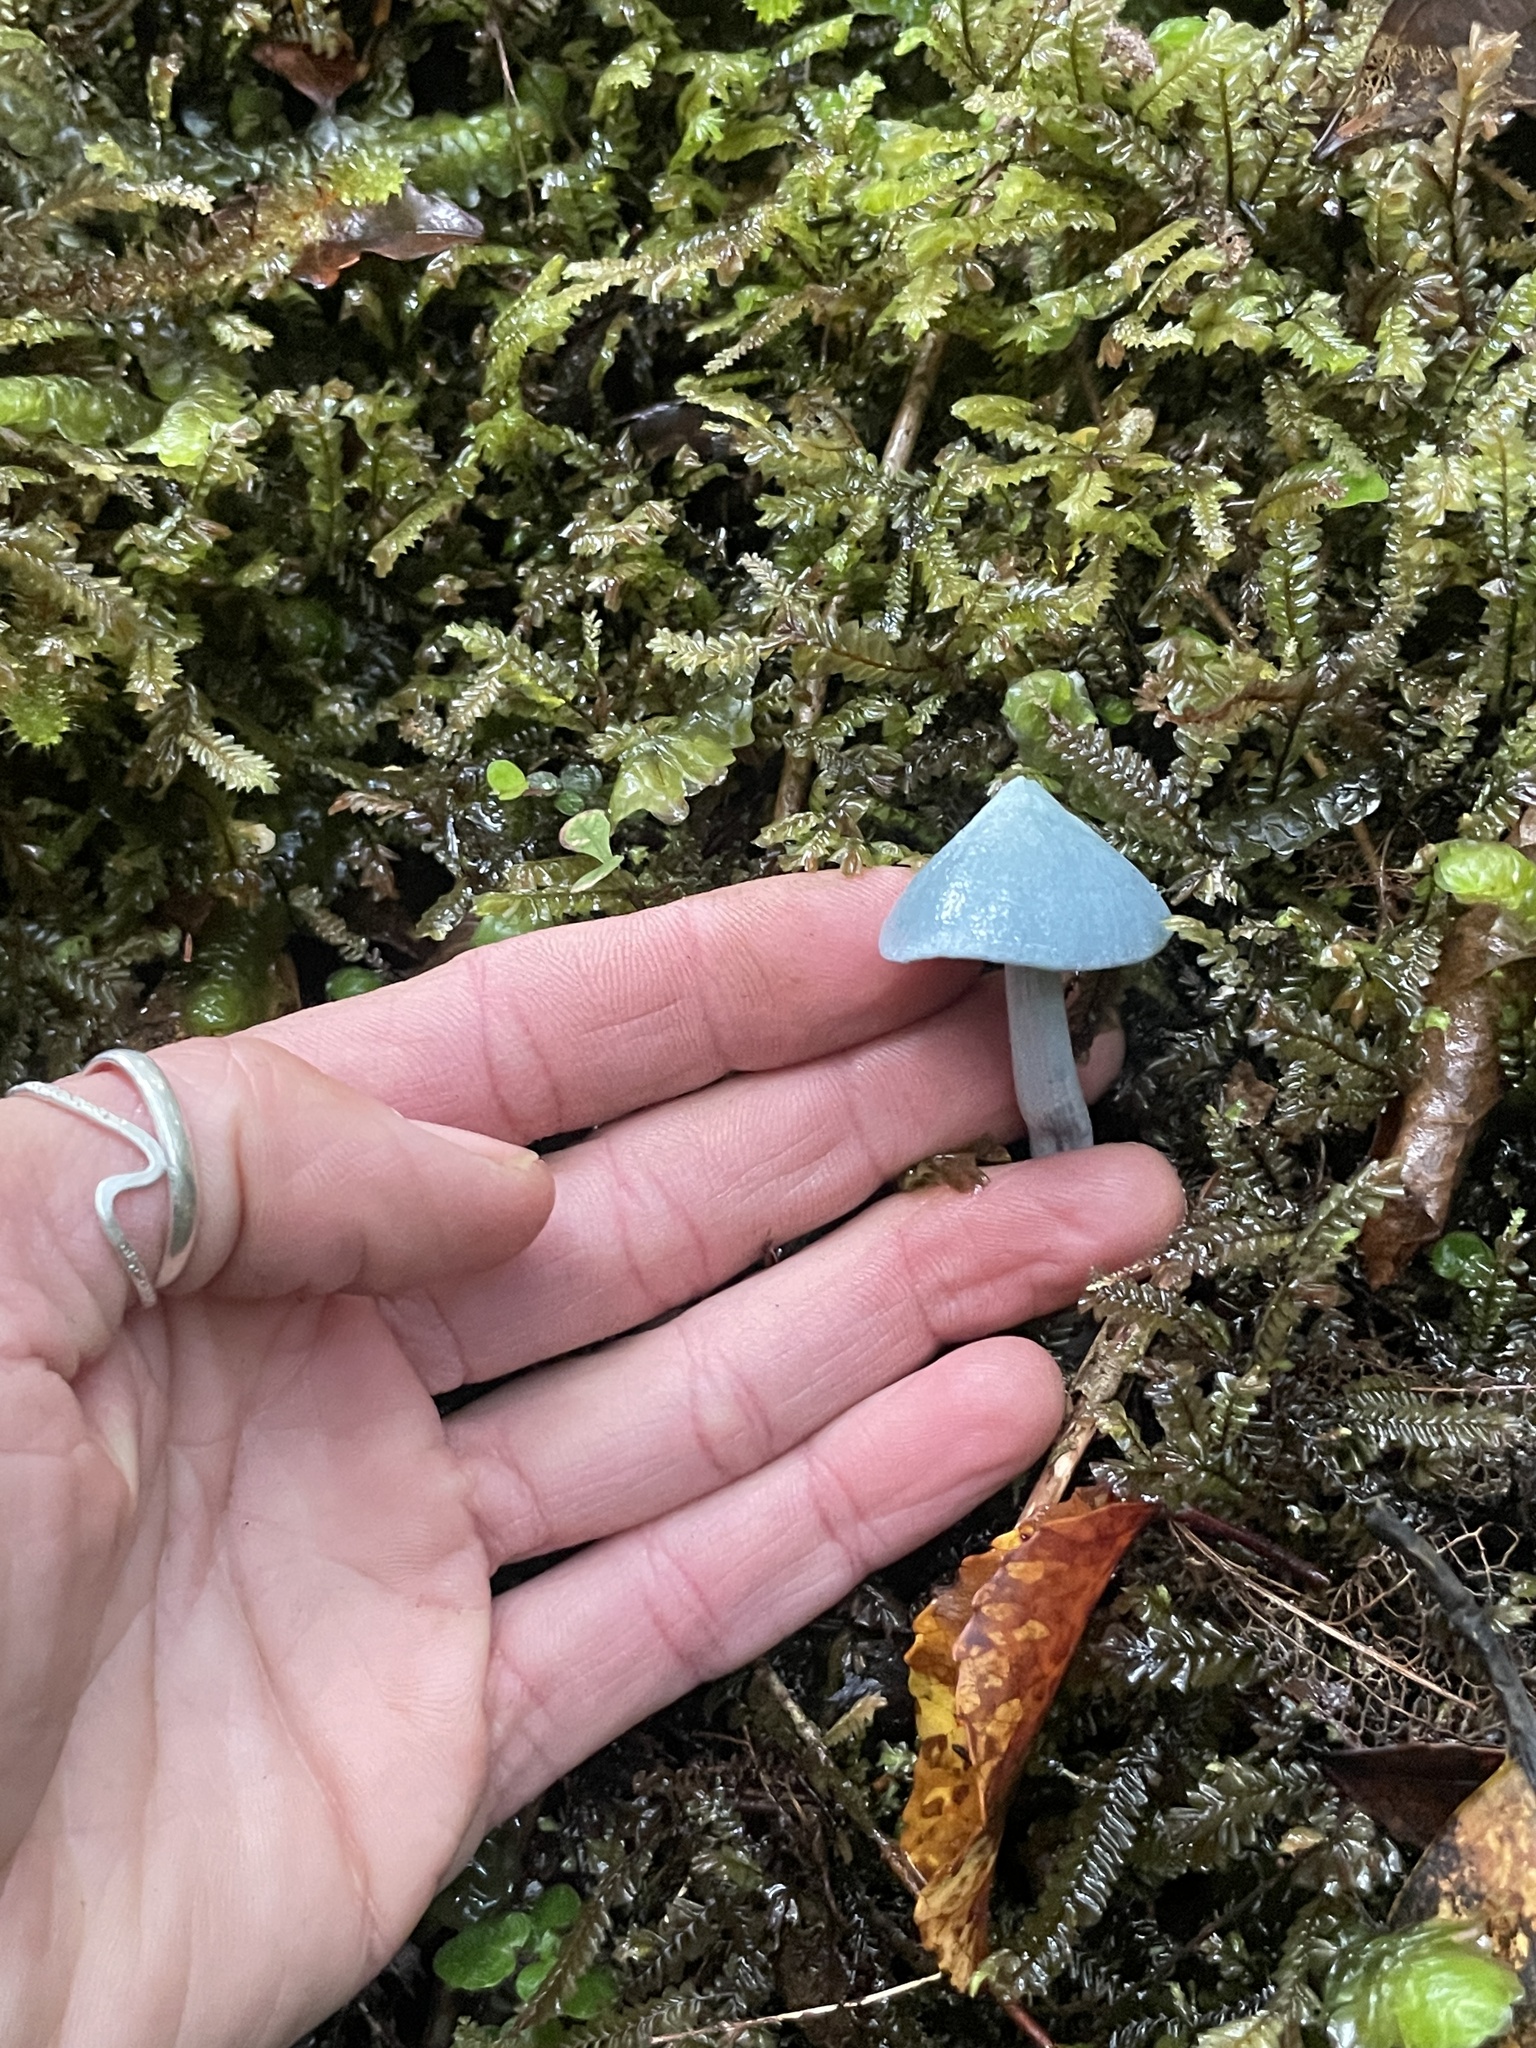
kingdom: Fungi
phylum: Basidiomycota
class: Agaricomycetes
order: Agaricales
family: Entolomataceae
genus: Entoloma
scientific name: Entoloma hochstetteri
